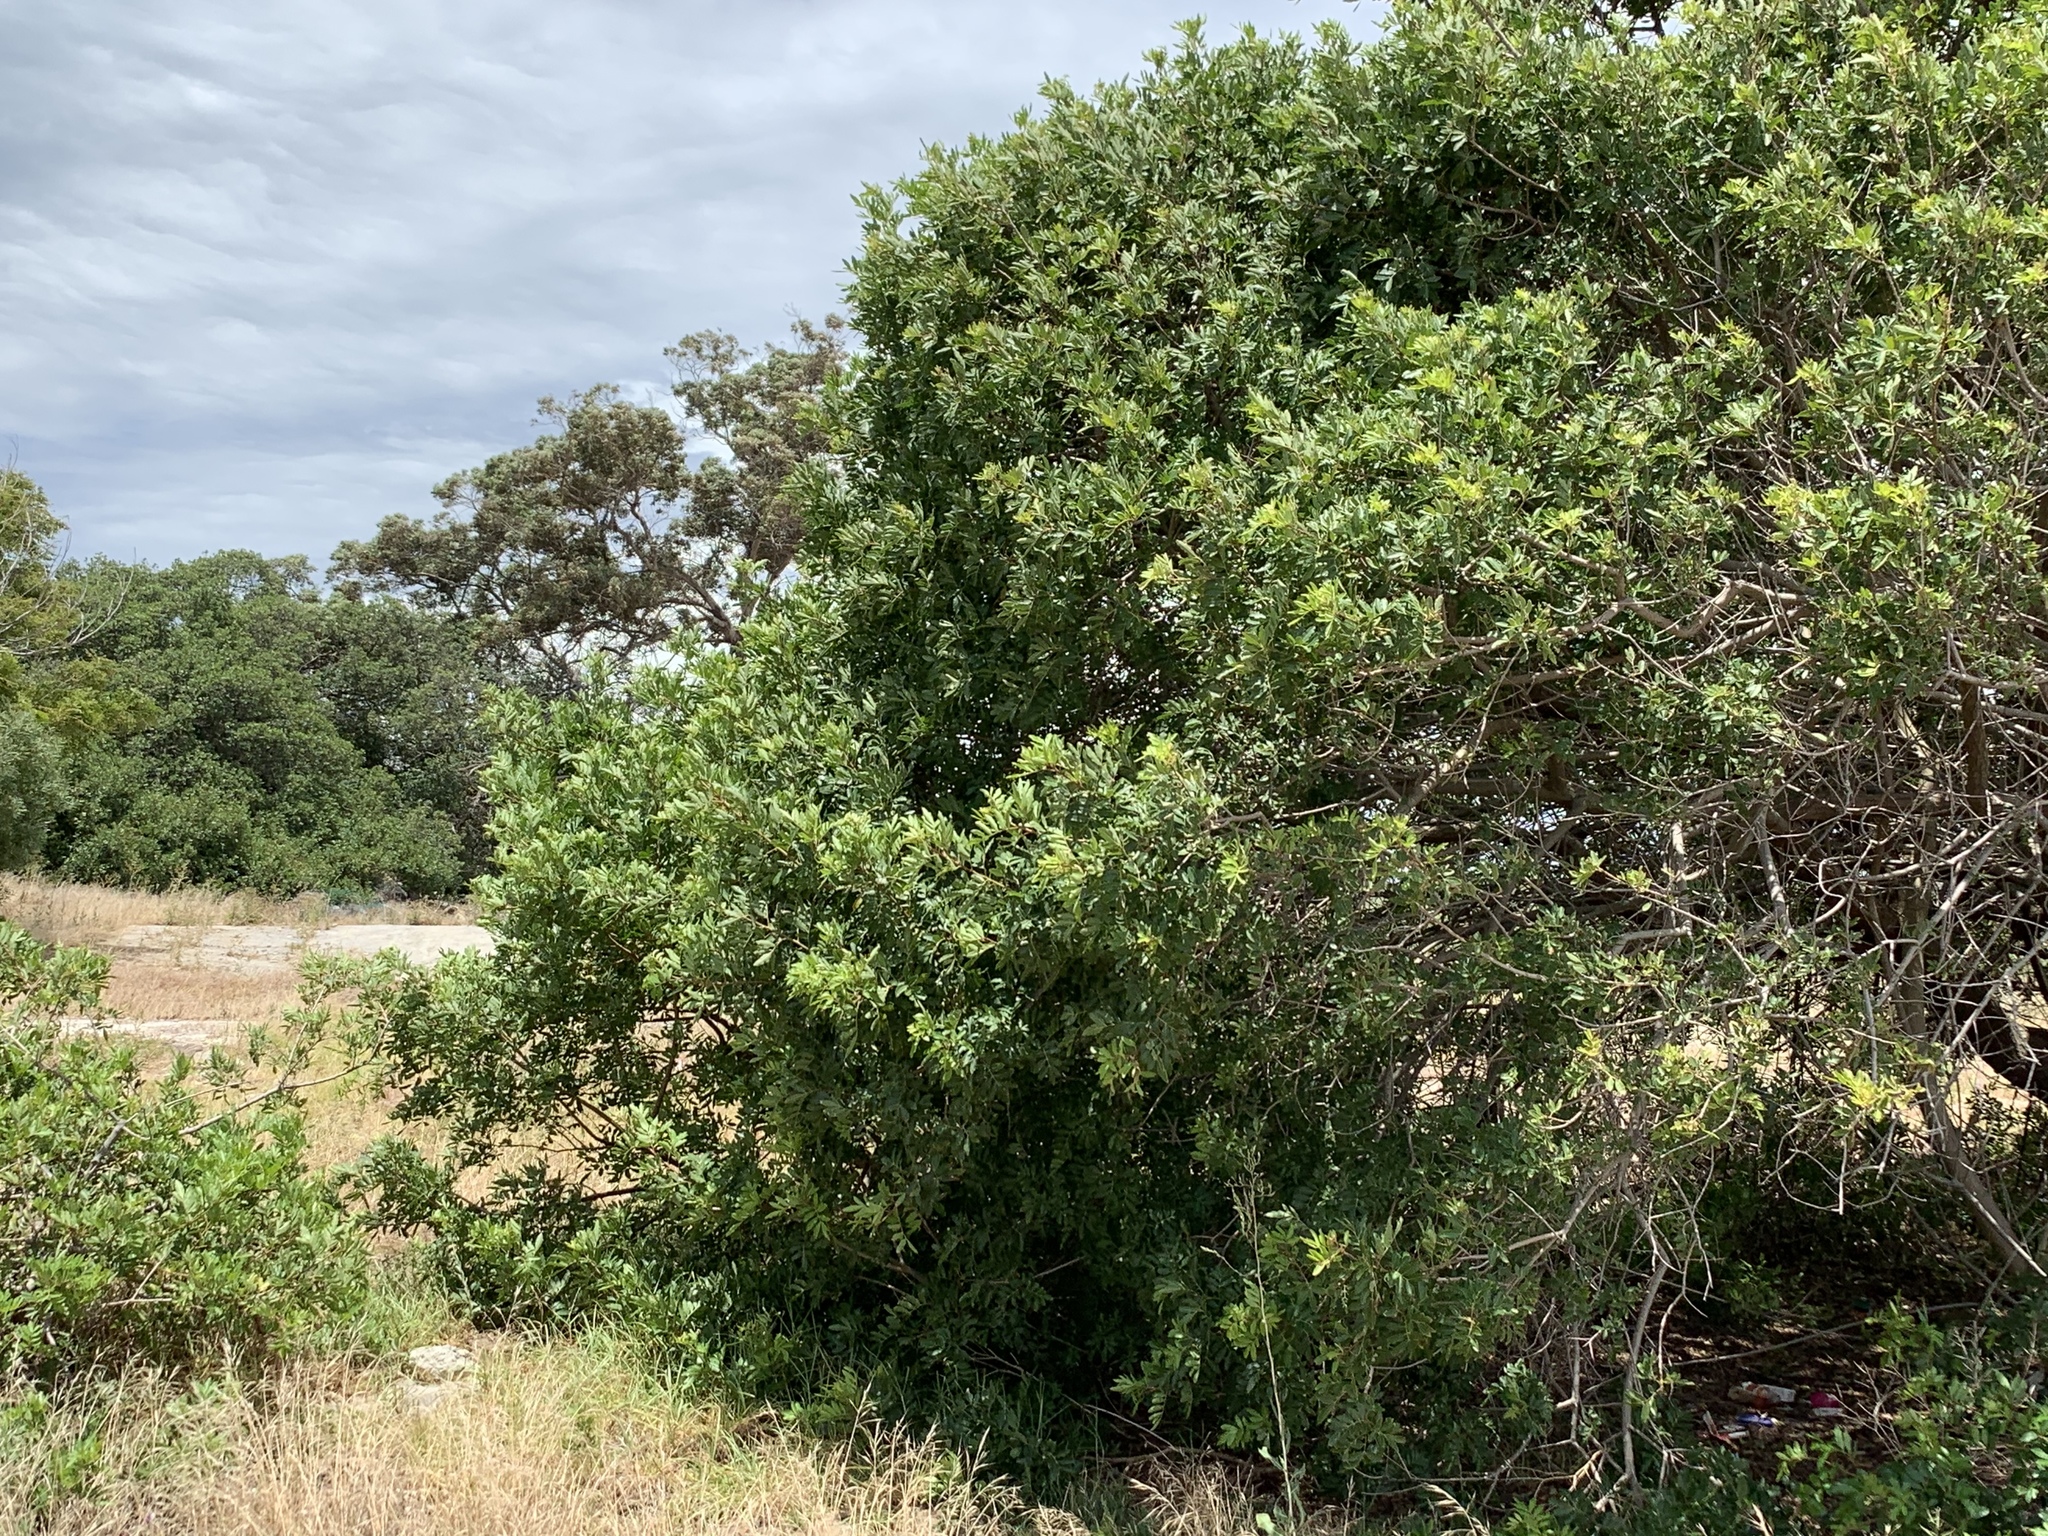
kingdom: Plantae
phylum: Tracheophyta
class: Magnoliopsida
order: Sapindales
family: Anacardiaceae
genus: Schinus
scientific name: Schinus terebinthifolia
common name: Brazilian peppertree
